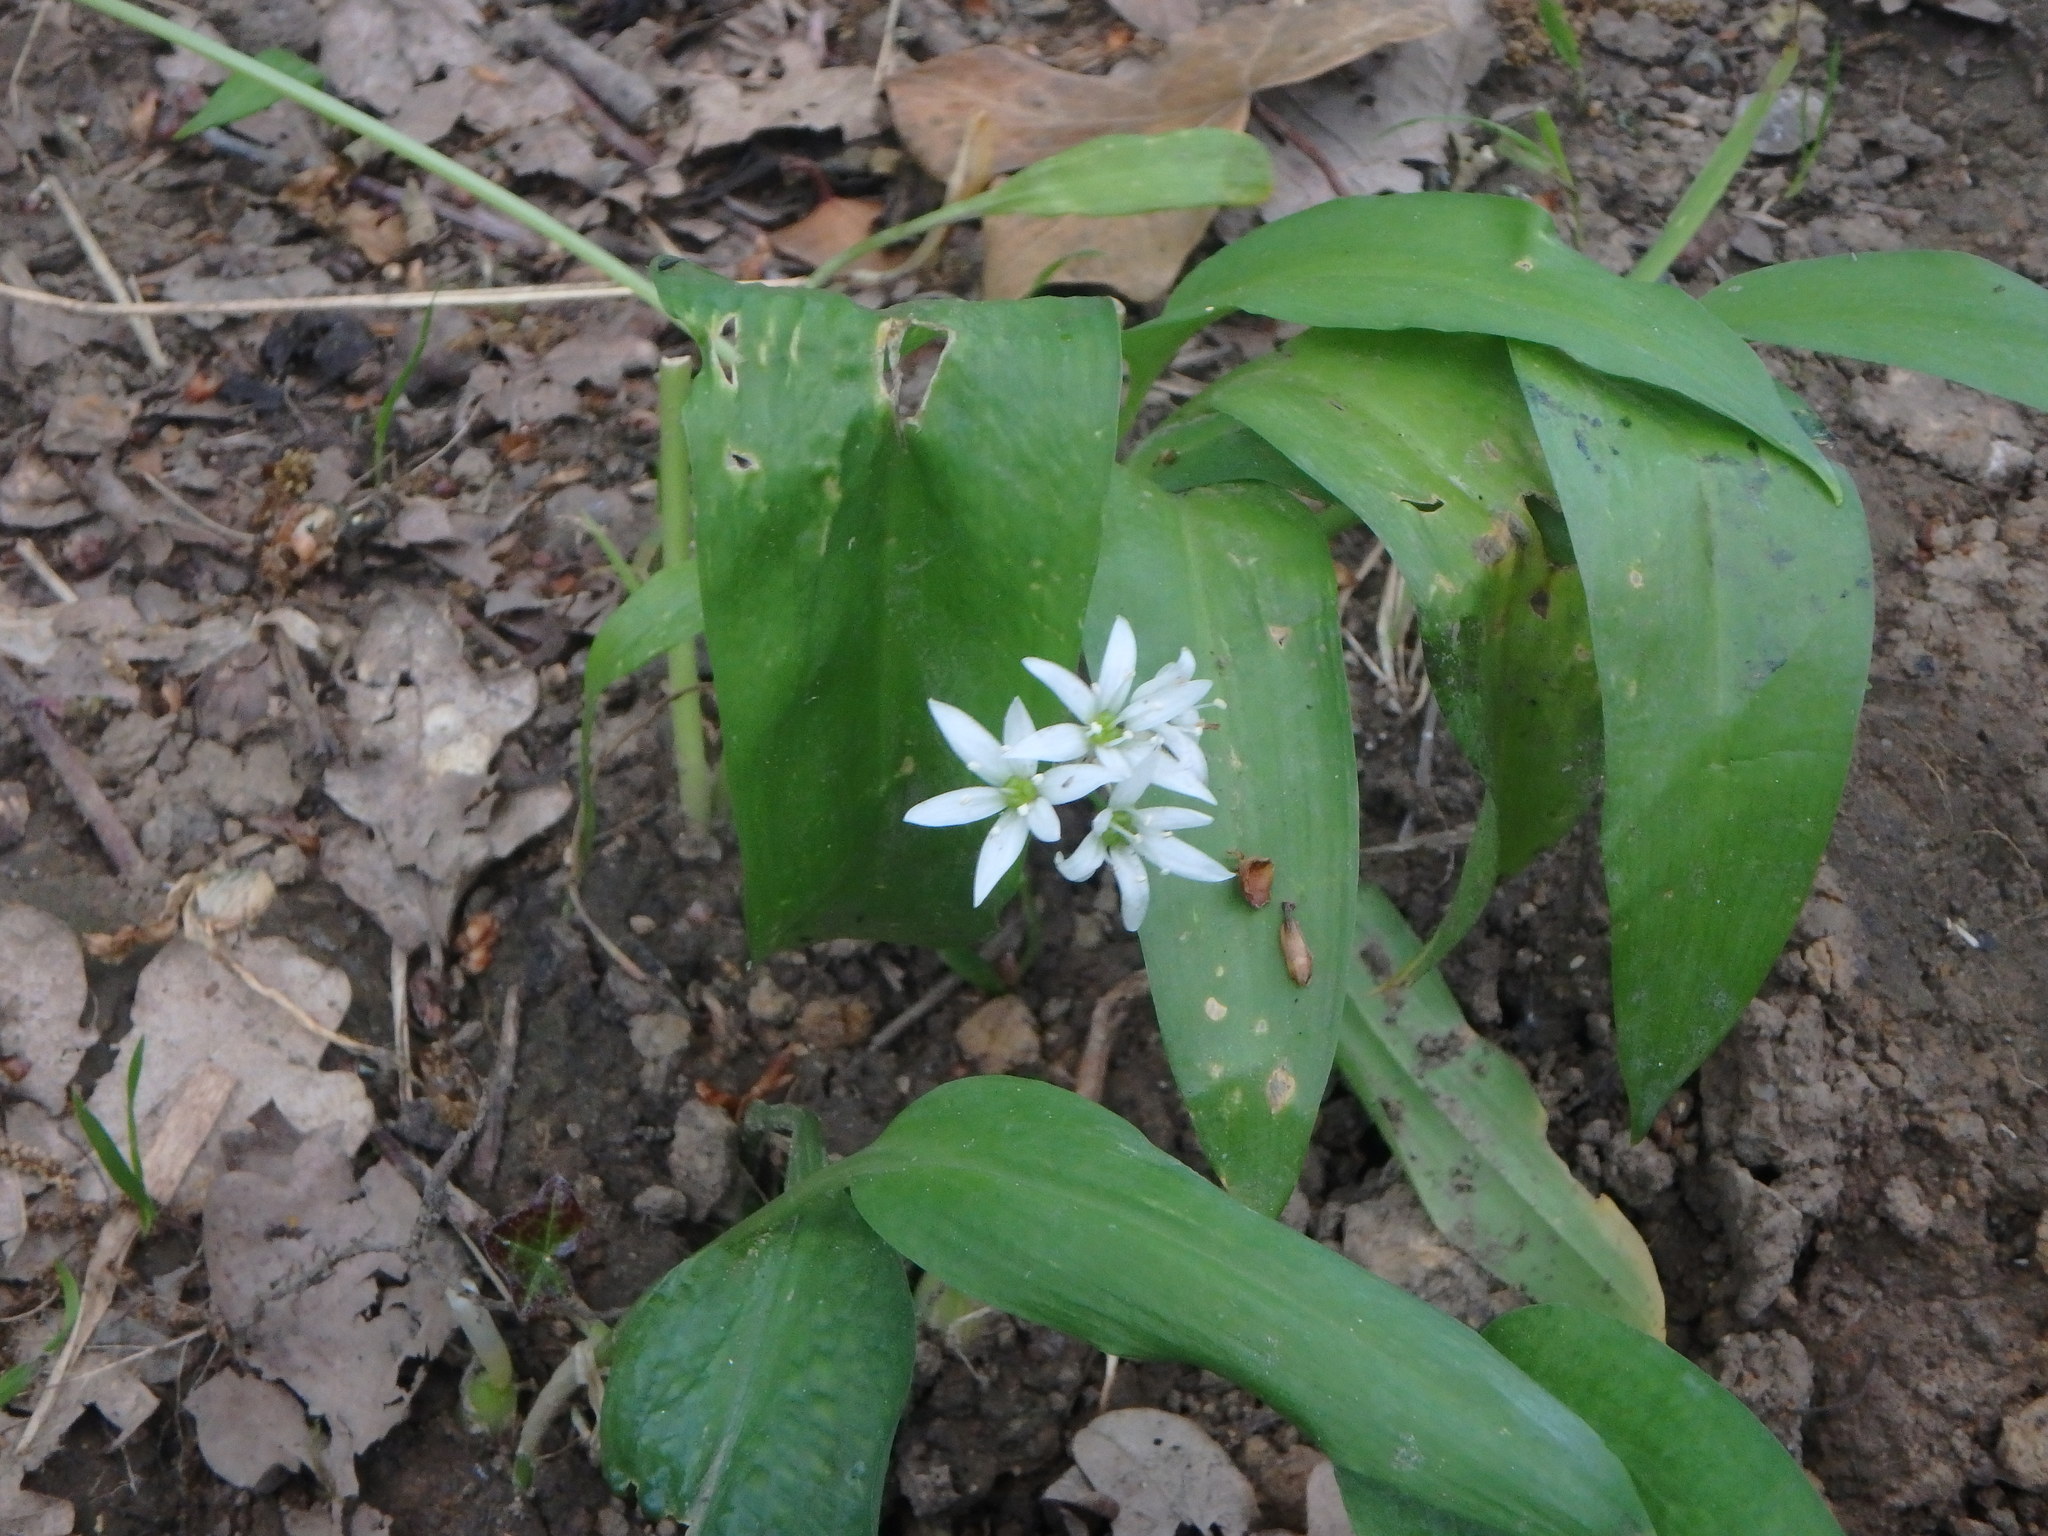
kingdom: Plantae
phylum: Tracheophyta
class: Liliopsida
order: Asparagales
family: Amaryllidaceae
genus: Allium
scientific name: Allium ursinum
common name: Ramsons
